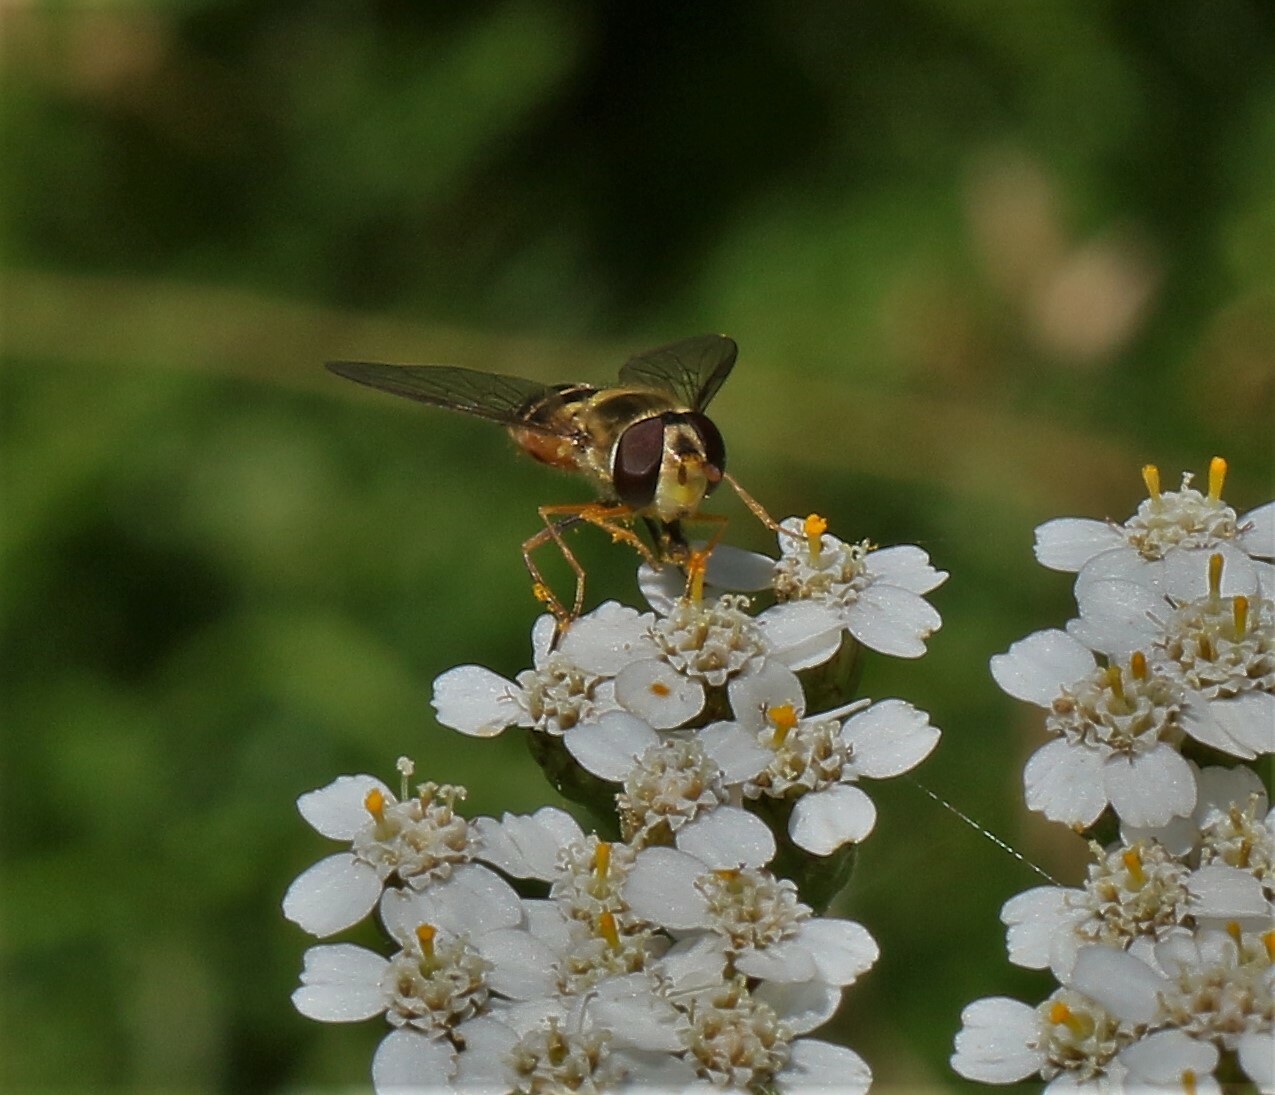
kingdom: Animalia
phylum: Arthropoda
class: Insecta
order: Diptera
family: Syrphidae
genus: Syrphus
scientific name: Syrphus
